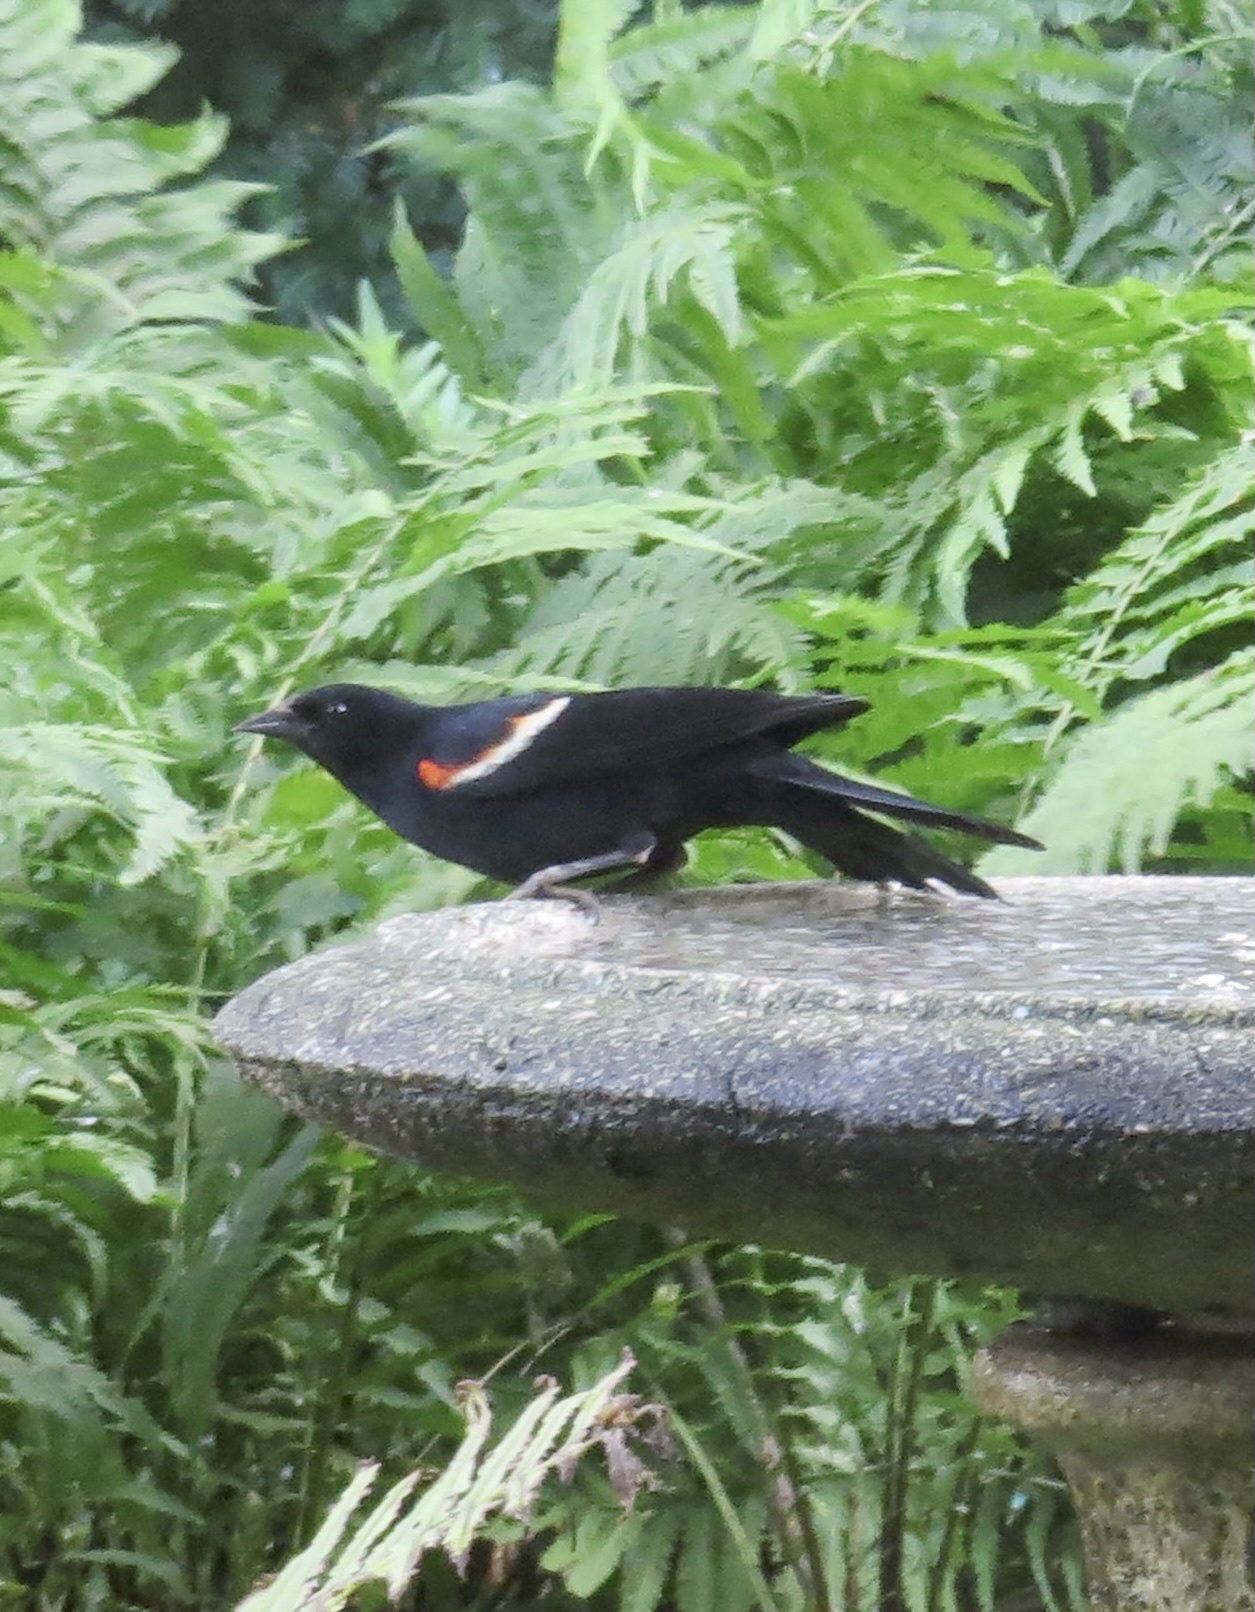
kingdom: Animalia
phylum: Chordata
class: Aves
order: Passeriformes
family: Icteridae
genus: Agelaius
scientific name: Agelaius phoeniceus
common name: Red-winged blackbird
